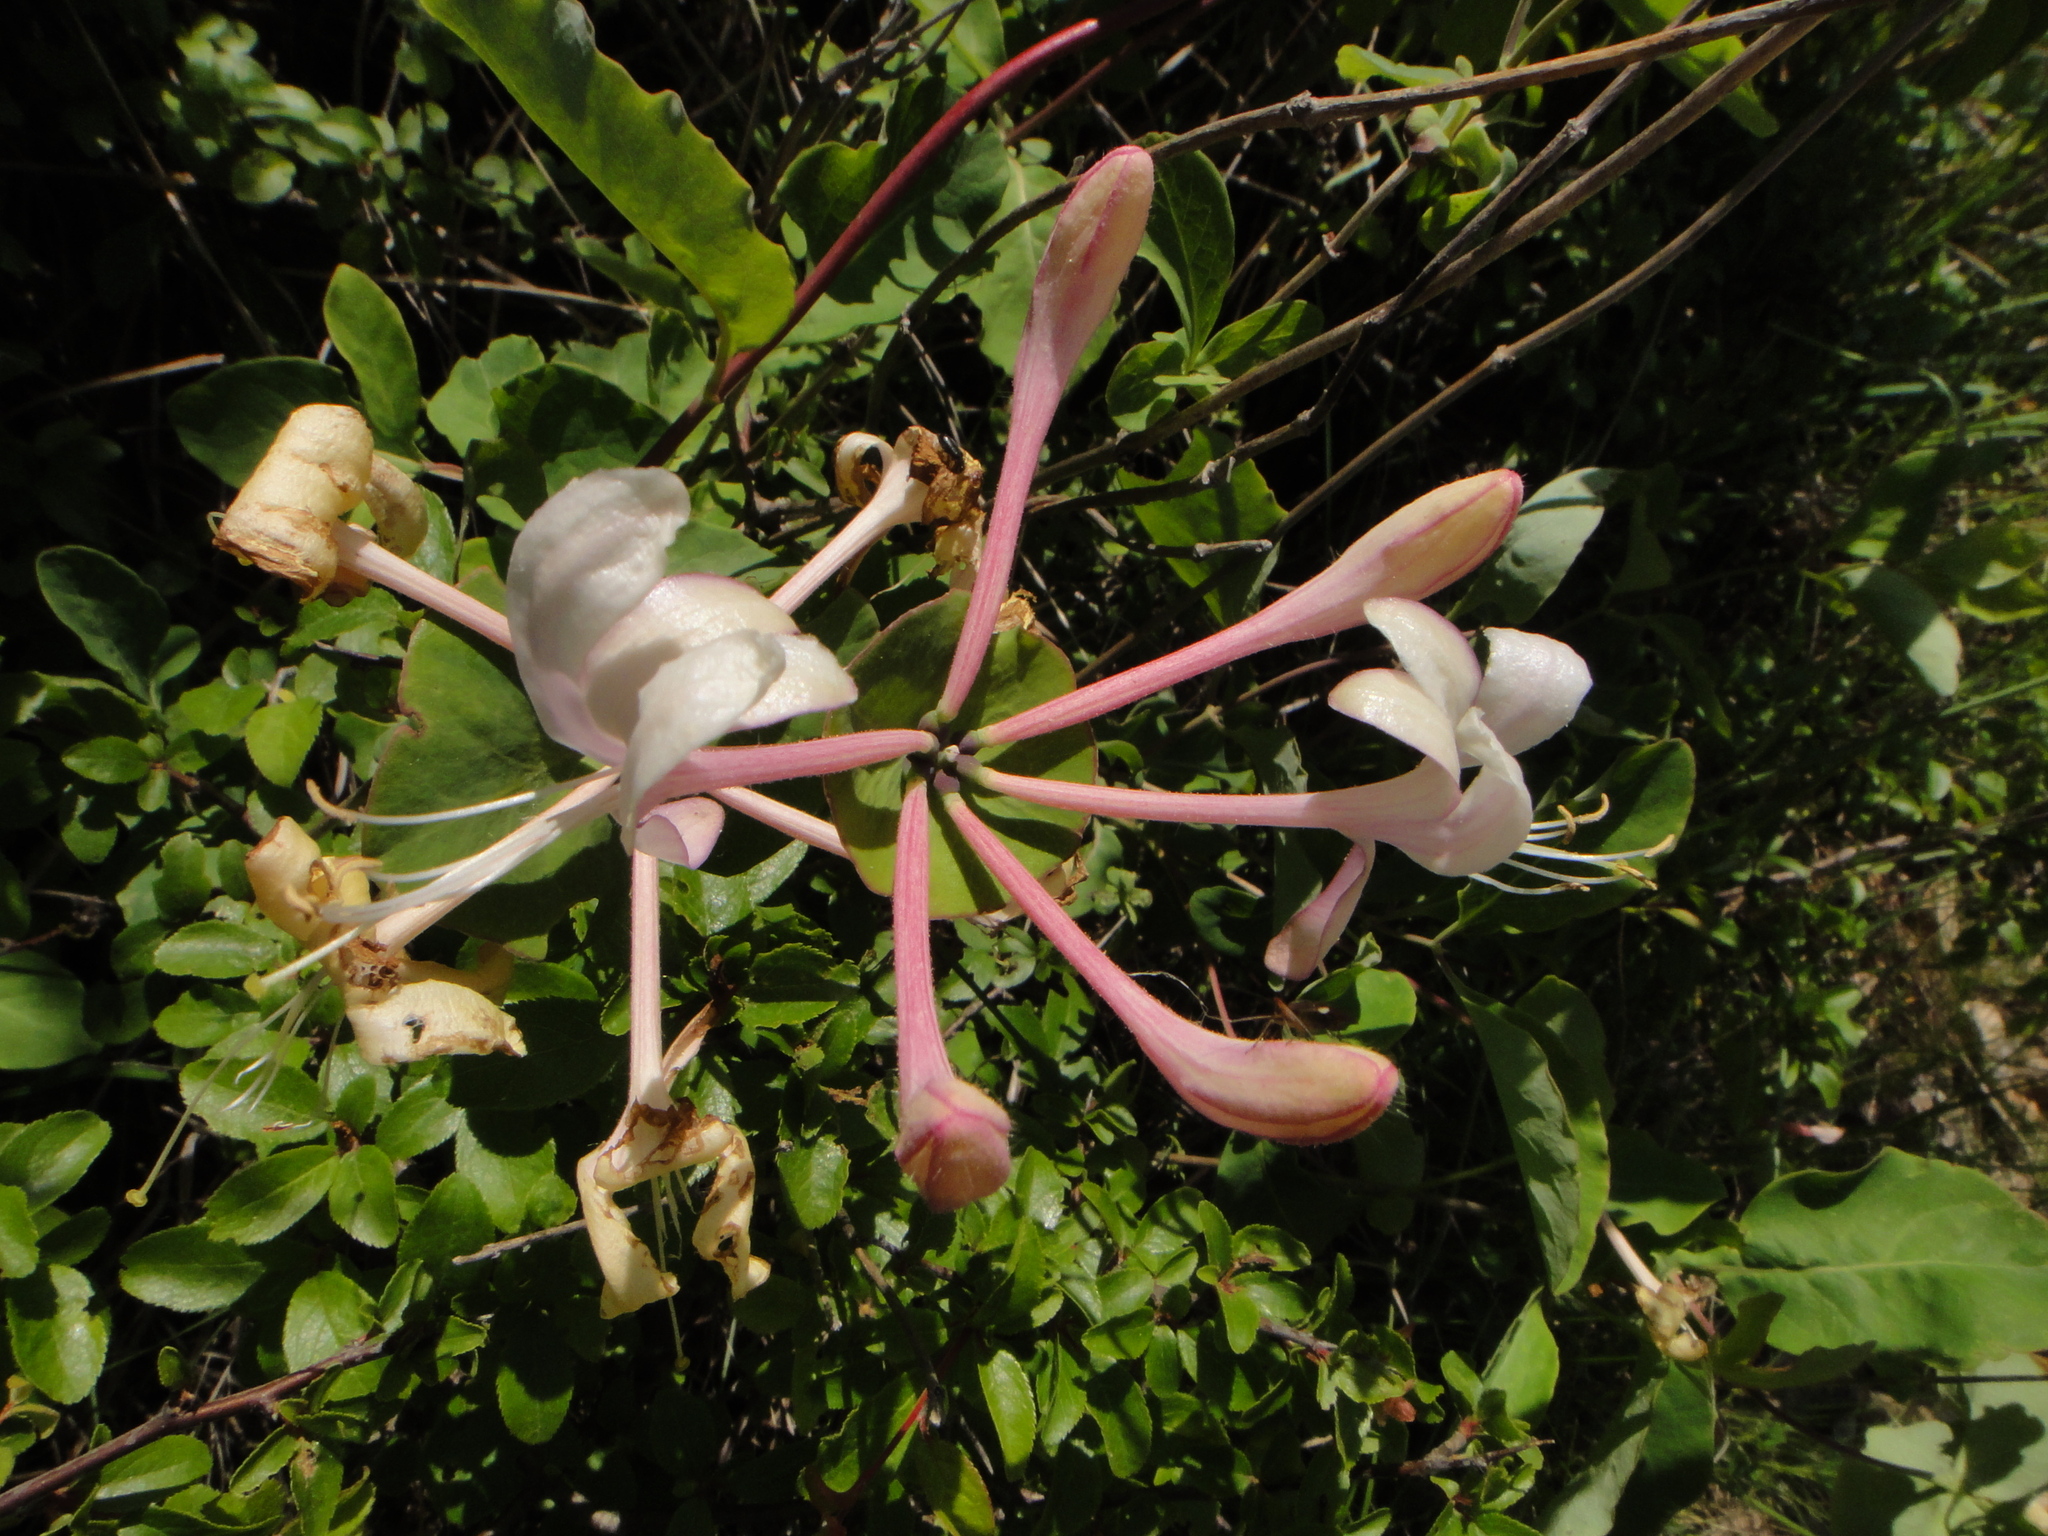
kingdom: Plantae
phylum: Tracheophyta
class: Magnoliopsida
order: Dipsacales
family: Caprifoliaceae
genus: Lonicera
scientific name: Lonicera caprifolium
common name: Perfoliate honeysuckle
